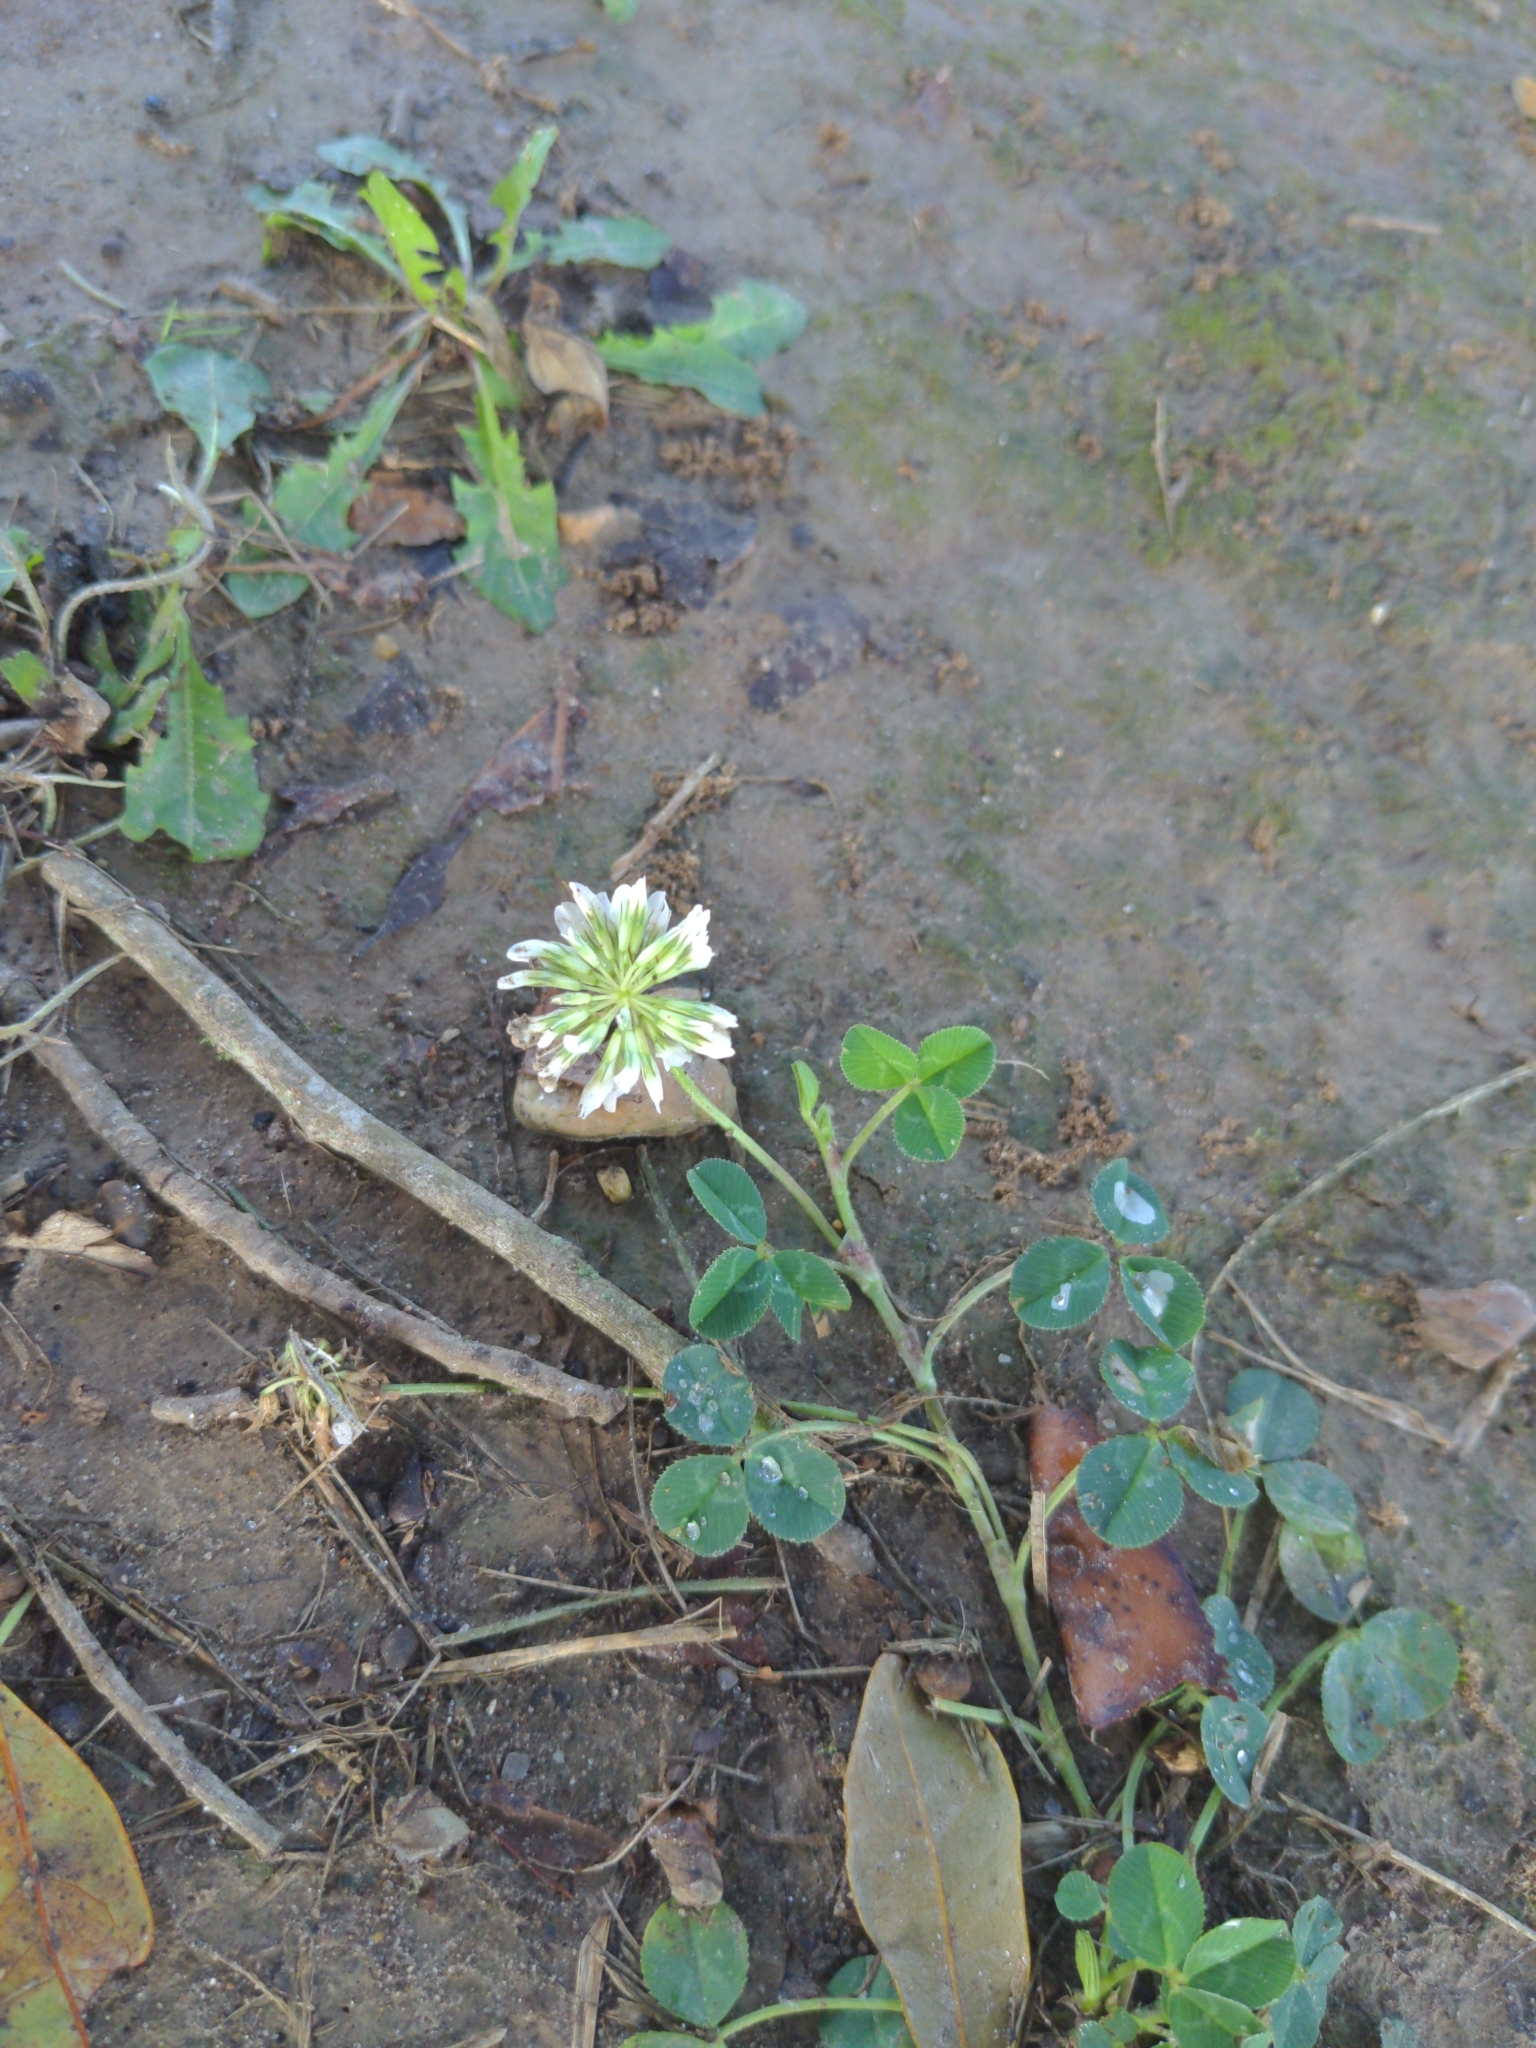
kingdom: Plantae
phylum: Tracheophyta
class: Magnoliopsida
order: Fabales
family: Fabaceae
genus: Trifolium
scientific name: Trifolium repens
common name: White clover
